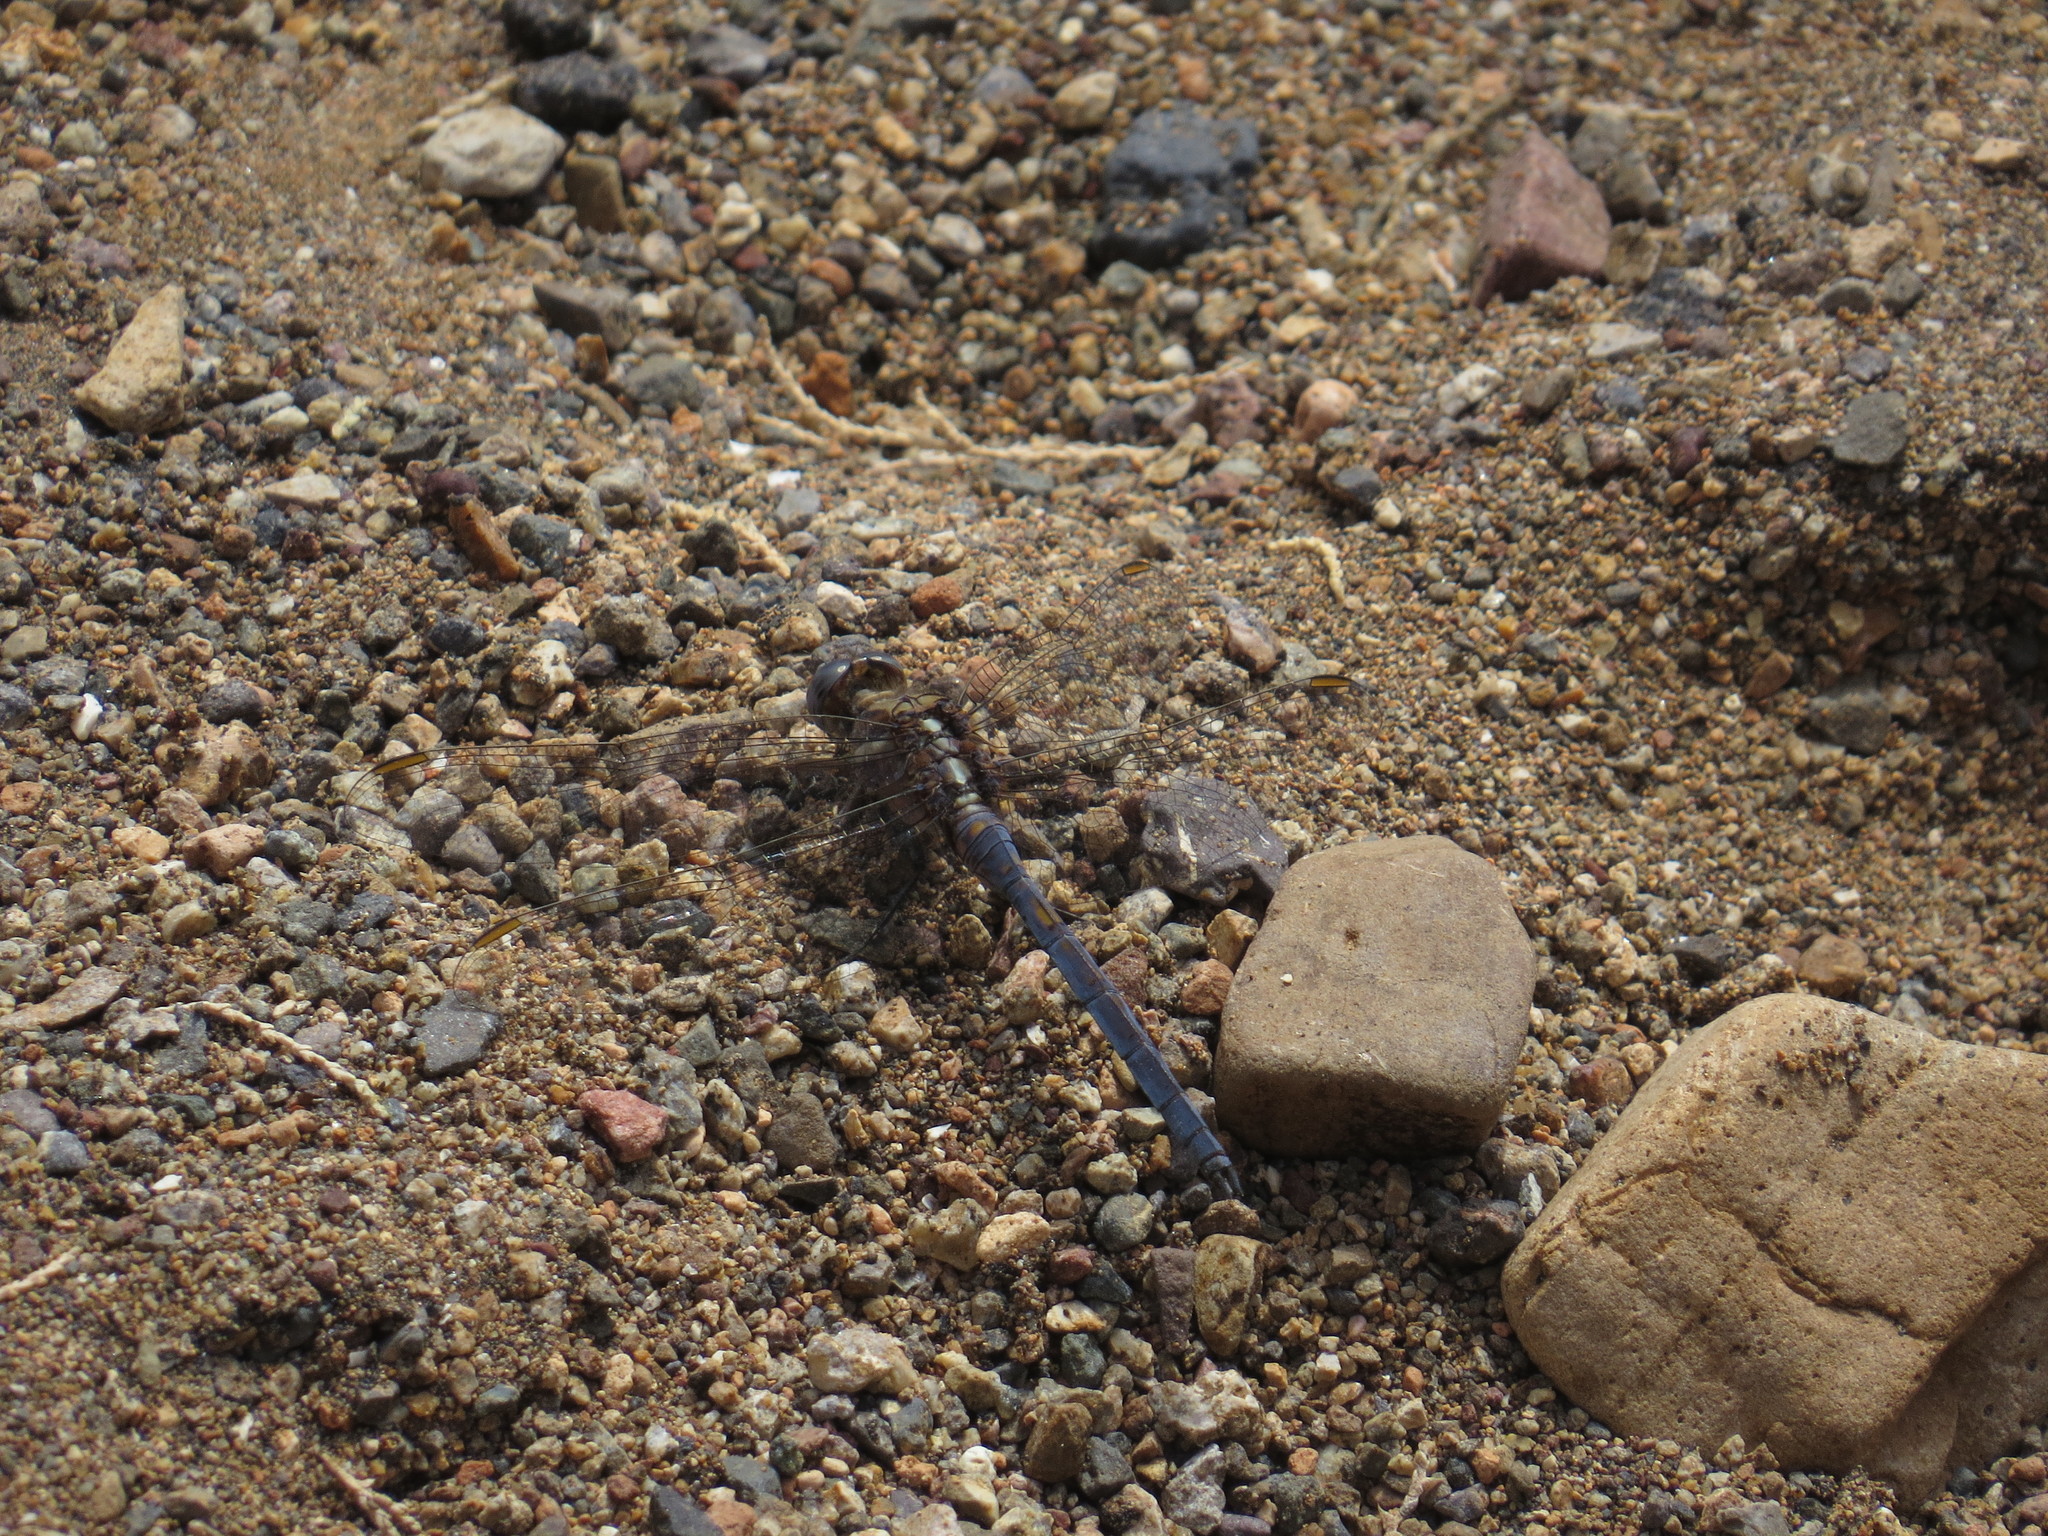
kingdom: Animalia
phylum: Arthropoda
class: Insecta
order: Odonata
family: Libellulidae
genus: Orthetrum
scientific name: Orthetrum chrysostigma
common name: Epaulet skimmer
